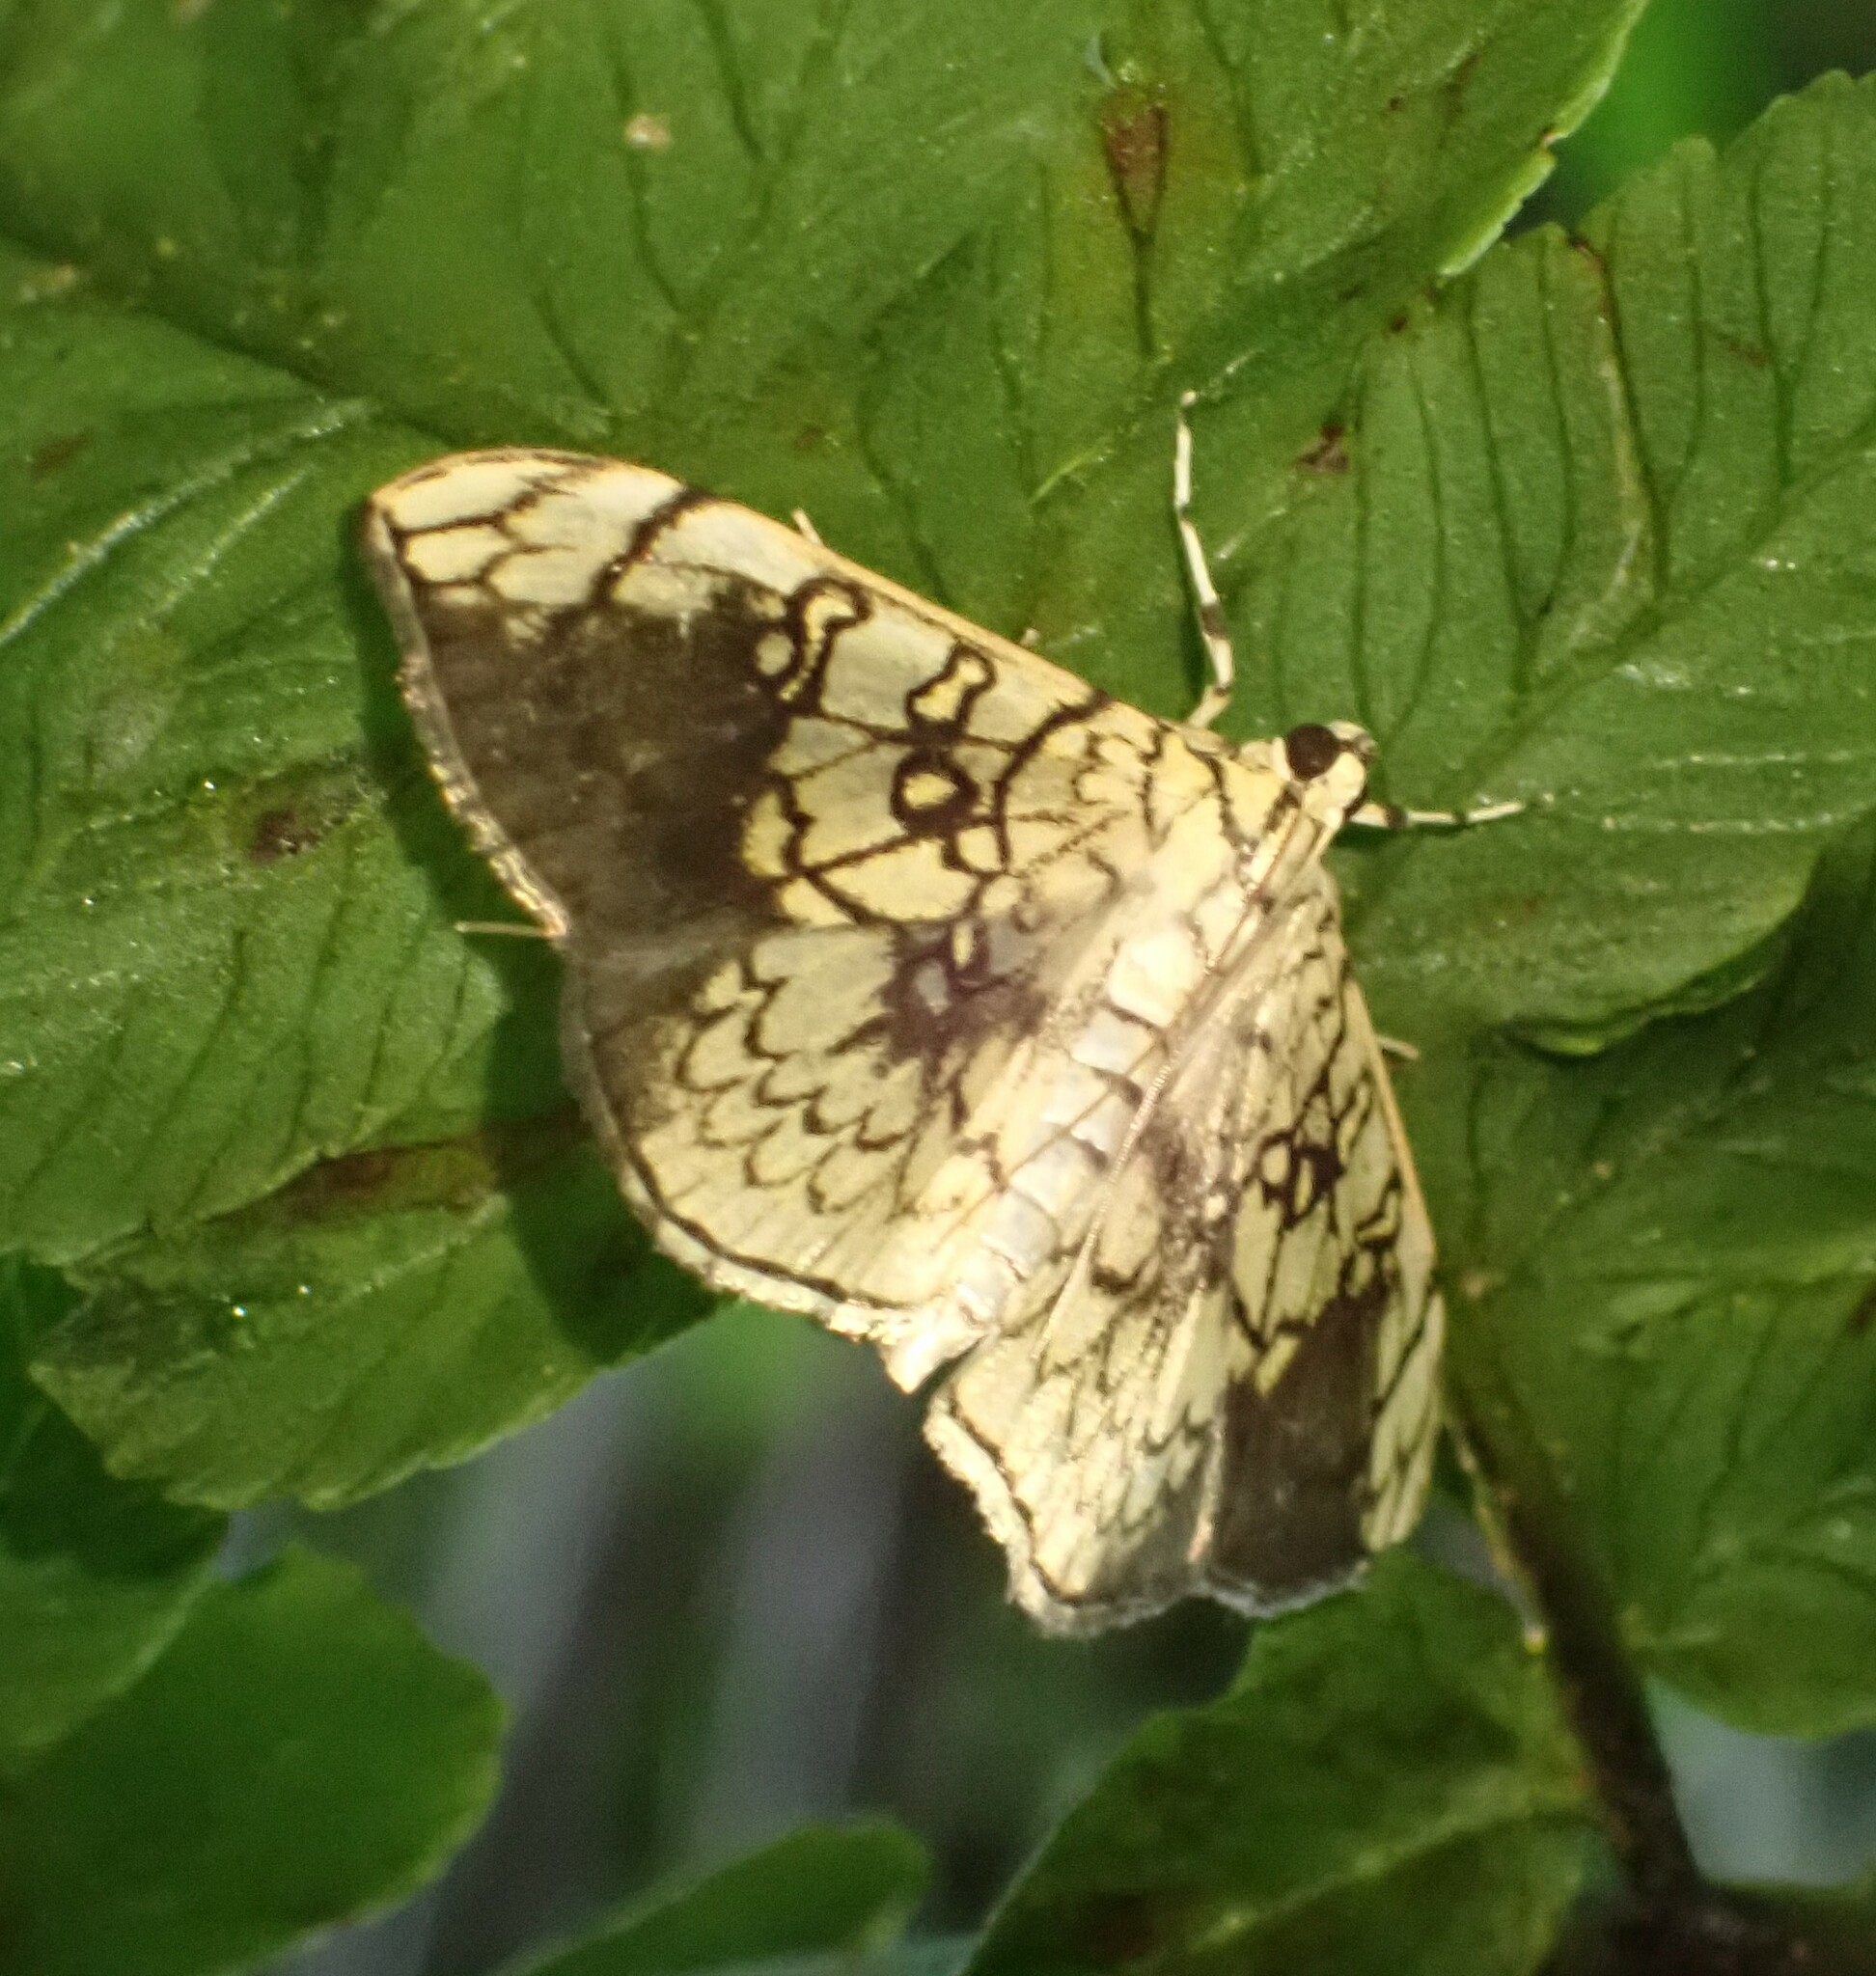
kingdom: Animalia
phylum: Arthropoda
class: Insecta
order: Lepidoptera
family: Crambidae
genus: Pantographa
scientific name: Pantographa scripturalis
